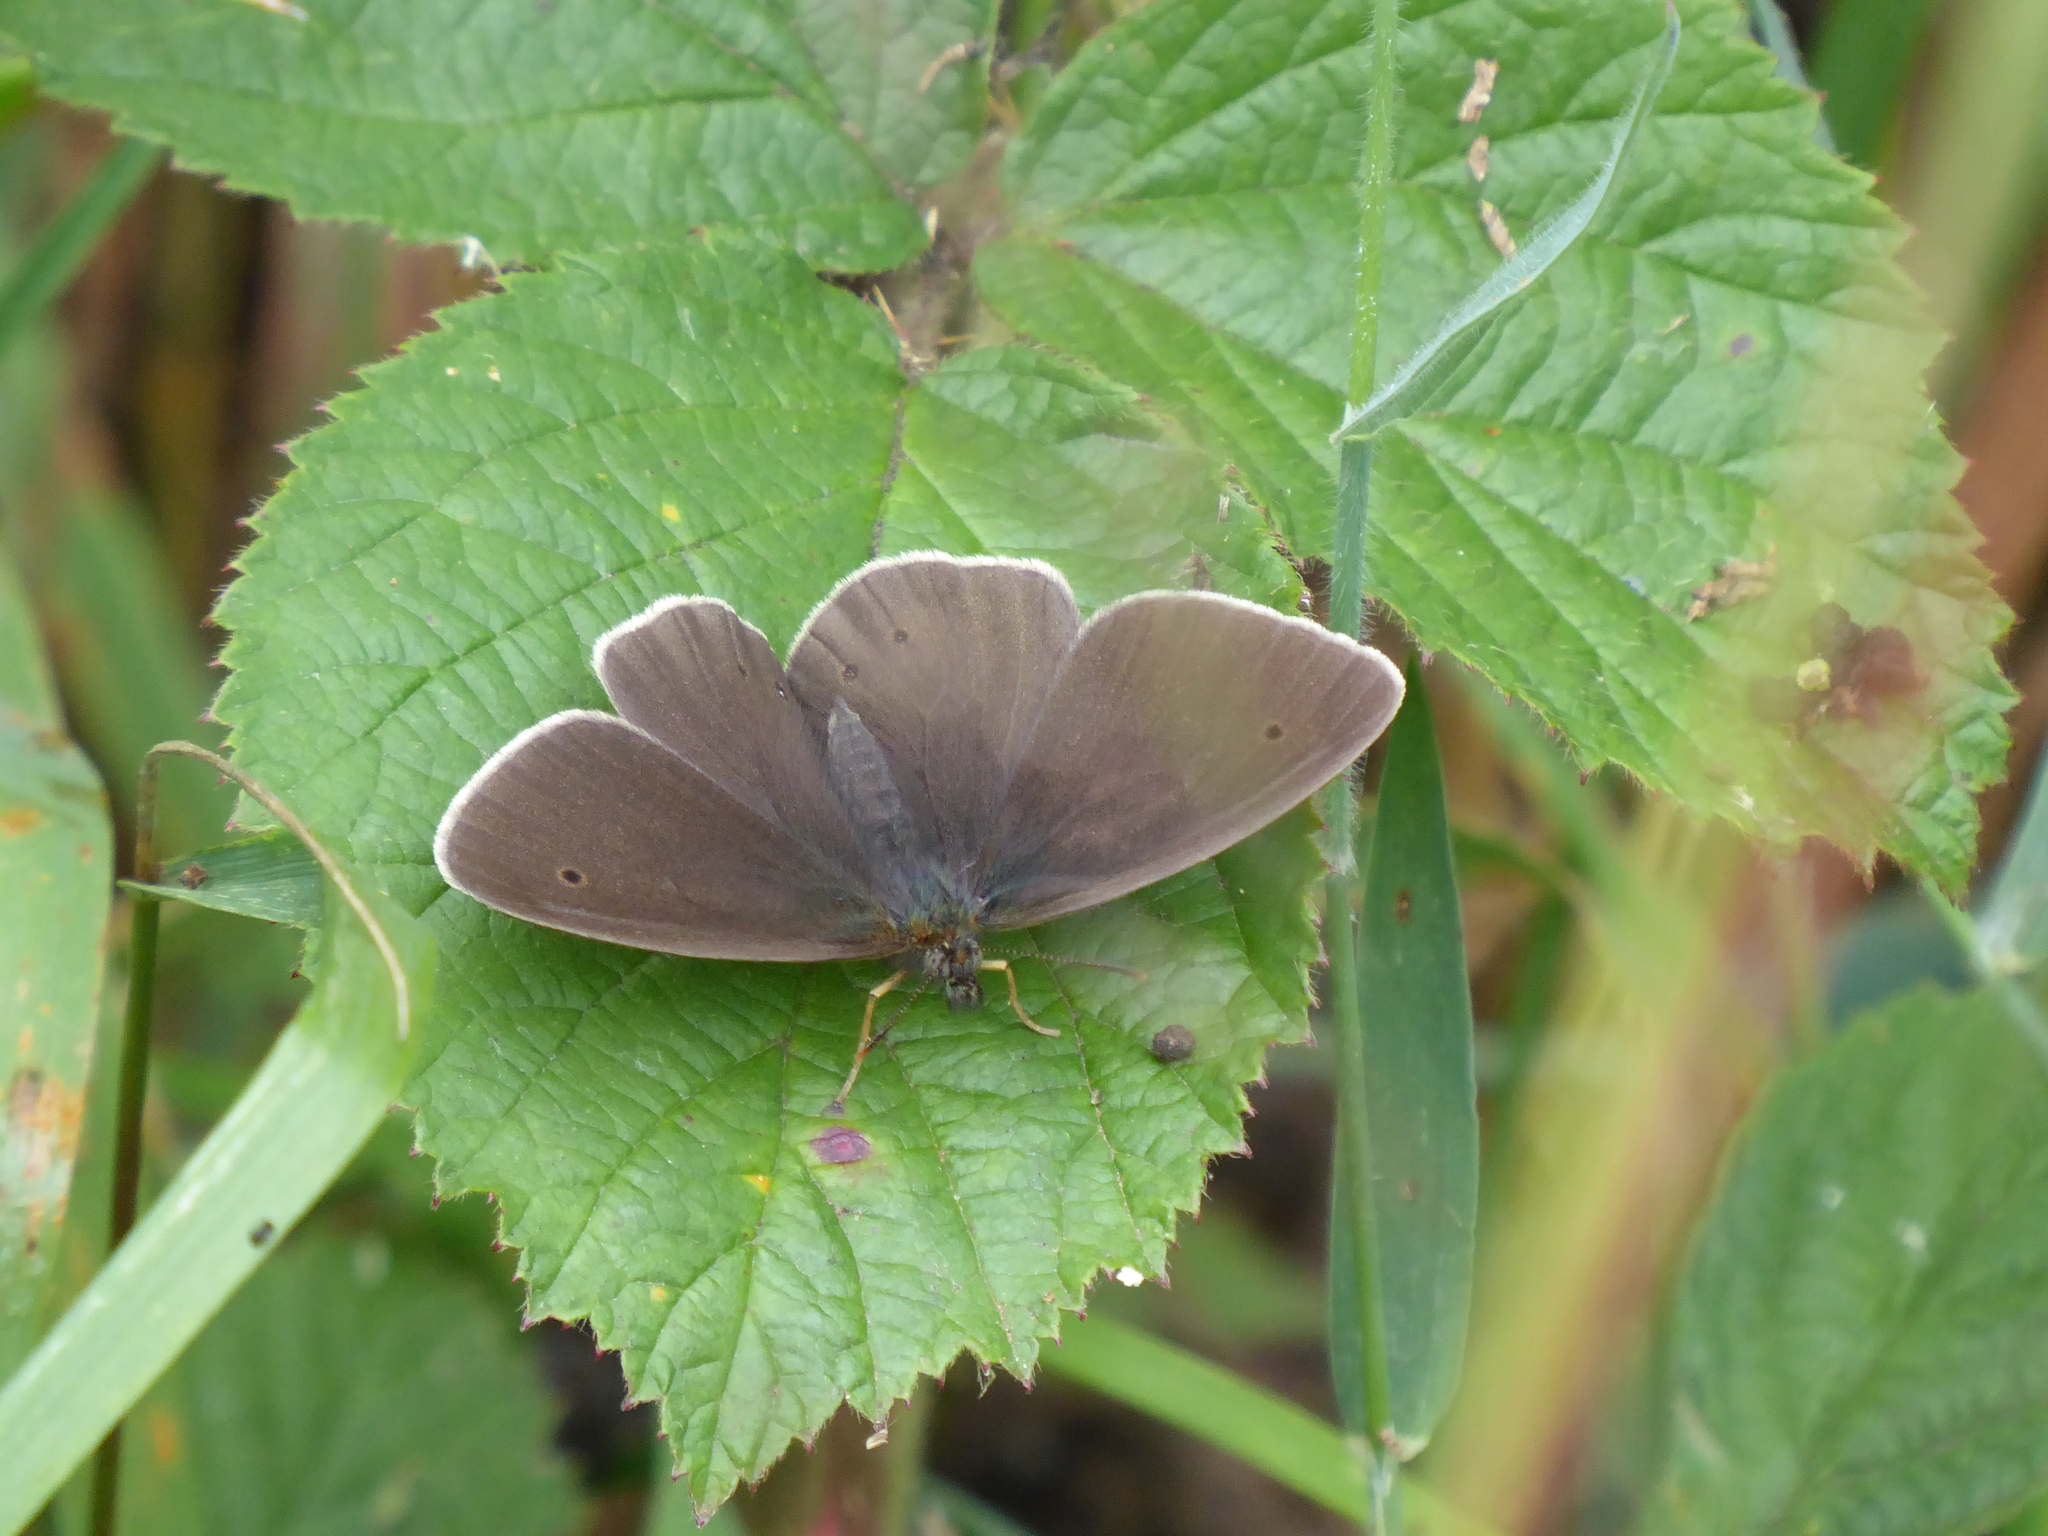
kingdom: Animalia
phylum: Arthropoda
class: Insecta
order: Lepidoptera
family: Nymphalidae
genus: Aphantopus
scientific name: Aphantopus hyperantus
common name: Ringlet
